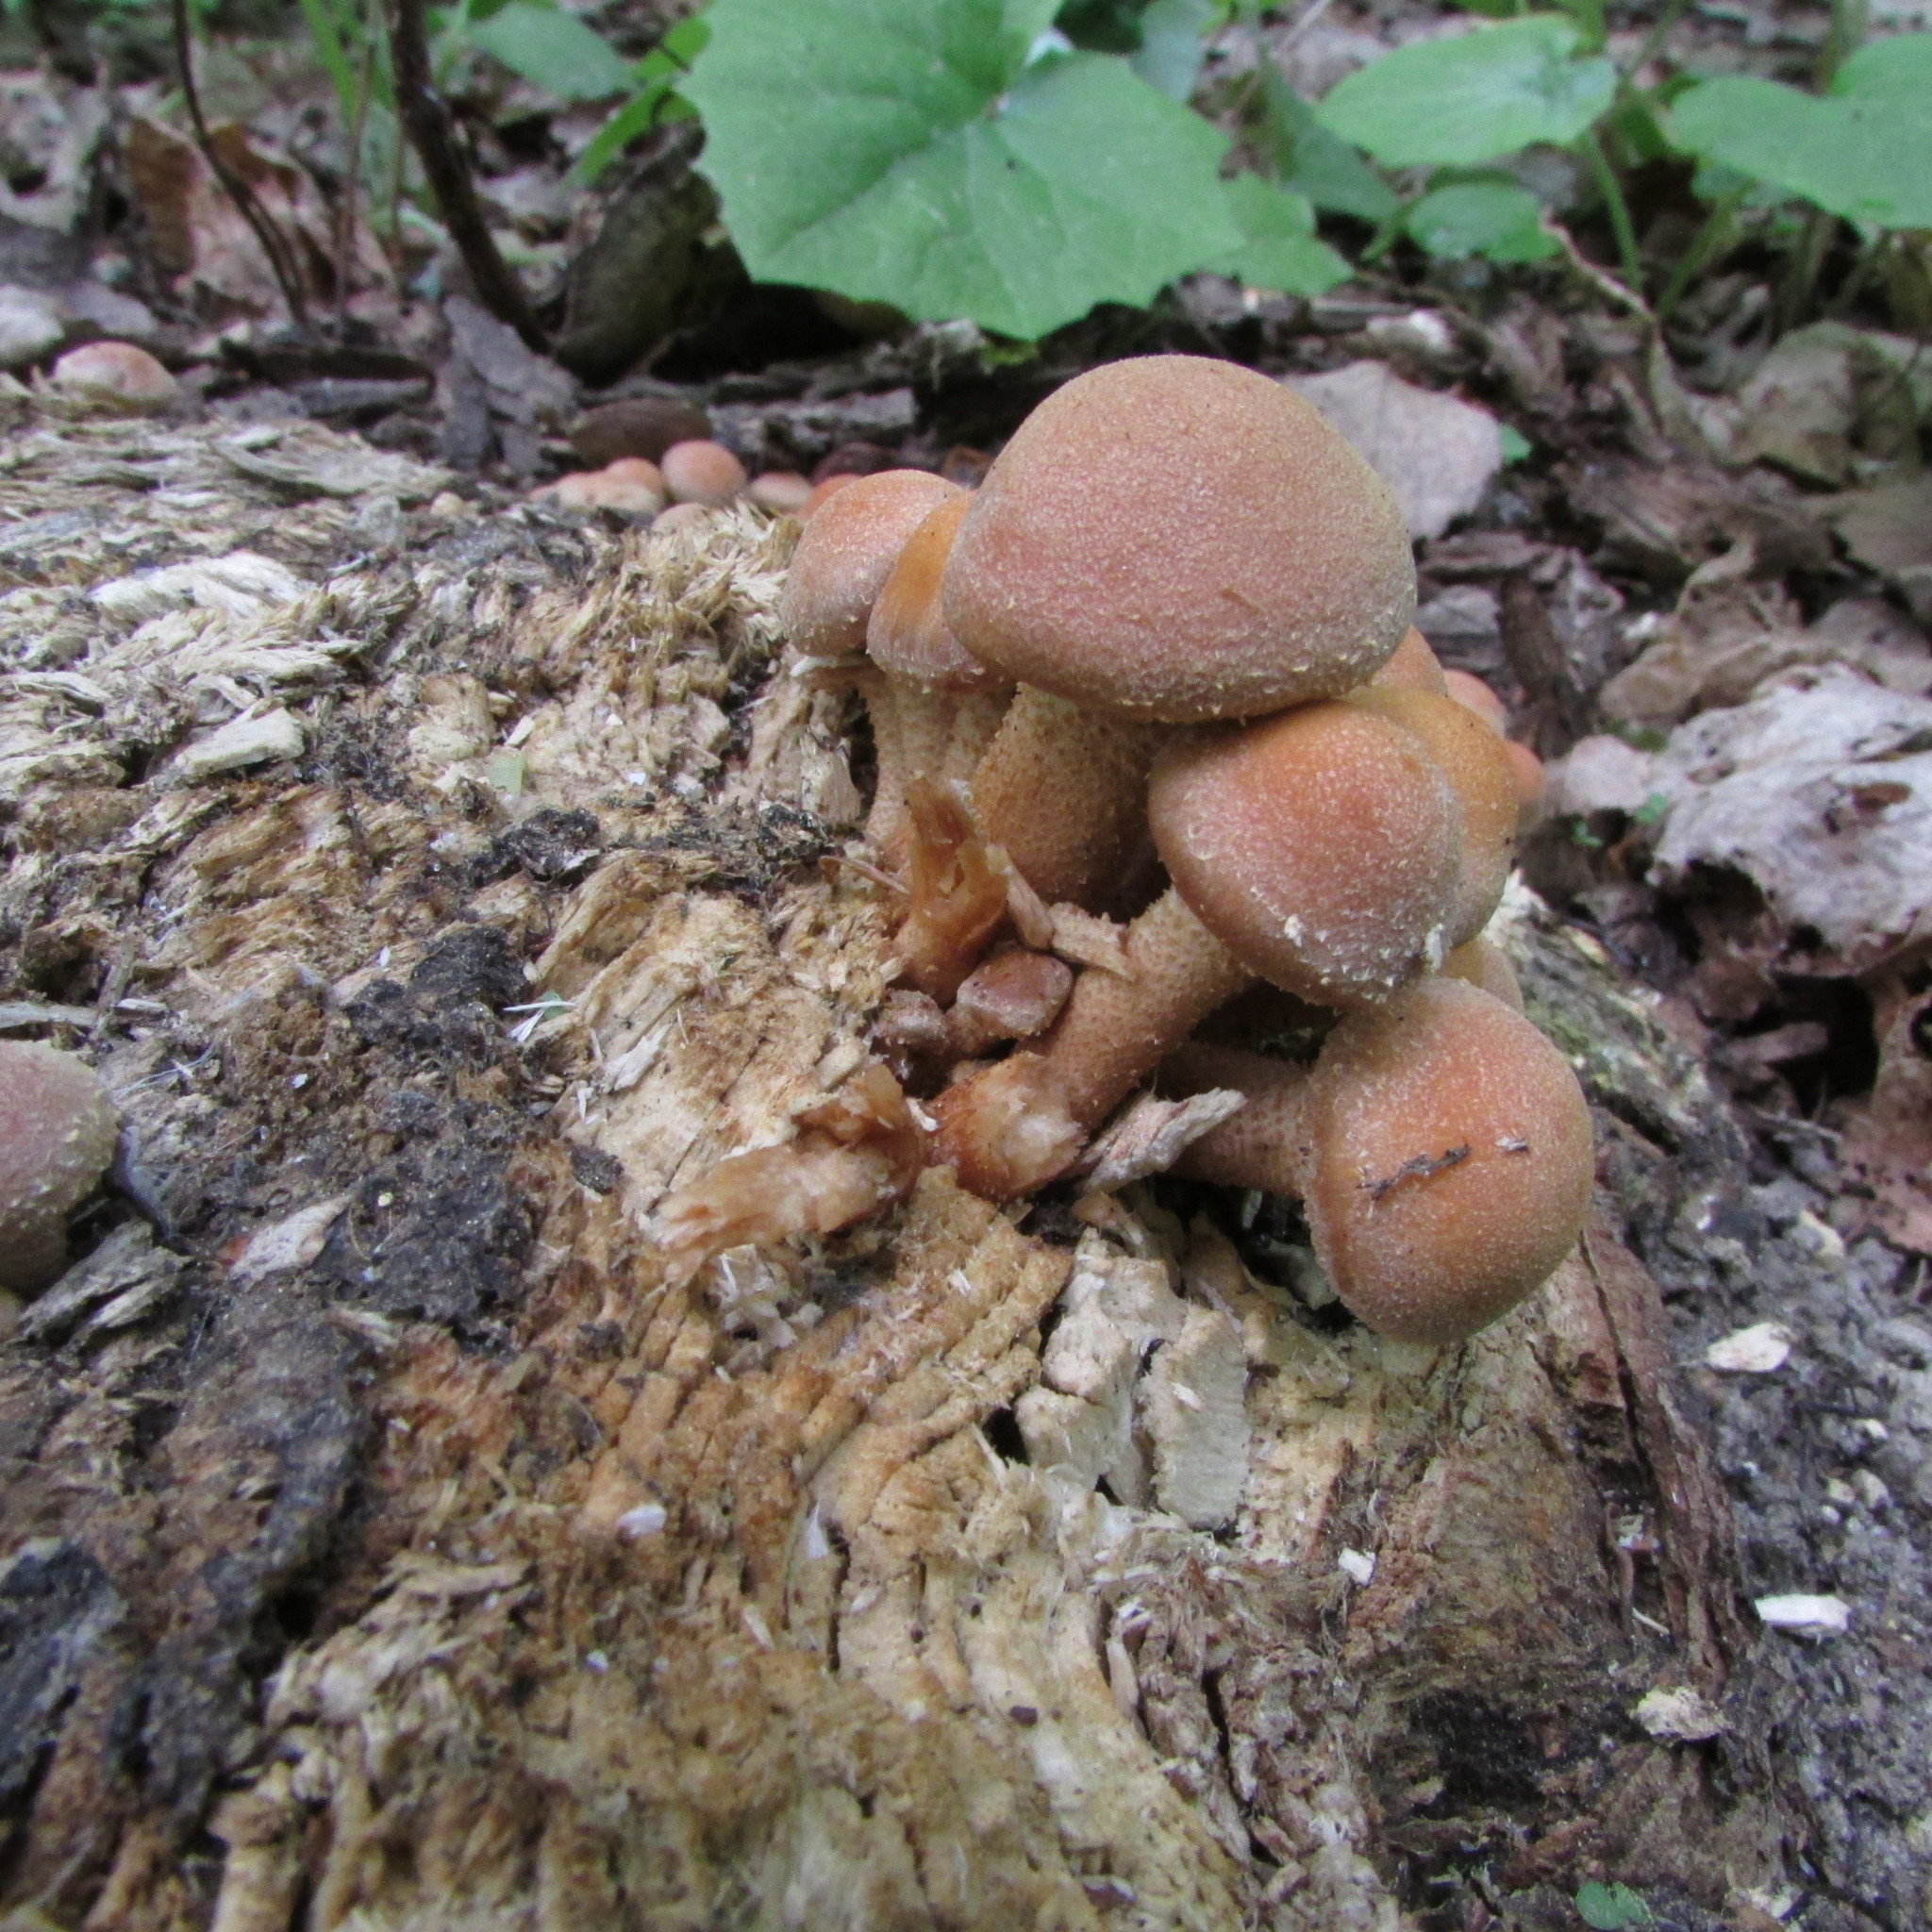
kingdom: Fungi
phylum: Basidiomycota
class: Agaricomycetes
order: Agaricales
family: Strophariaceae
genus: Kuehneromyces
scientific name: Kuehneromyces mutabilis
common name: Sheathed woodtuft
